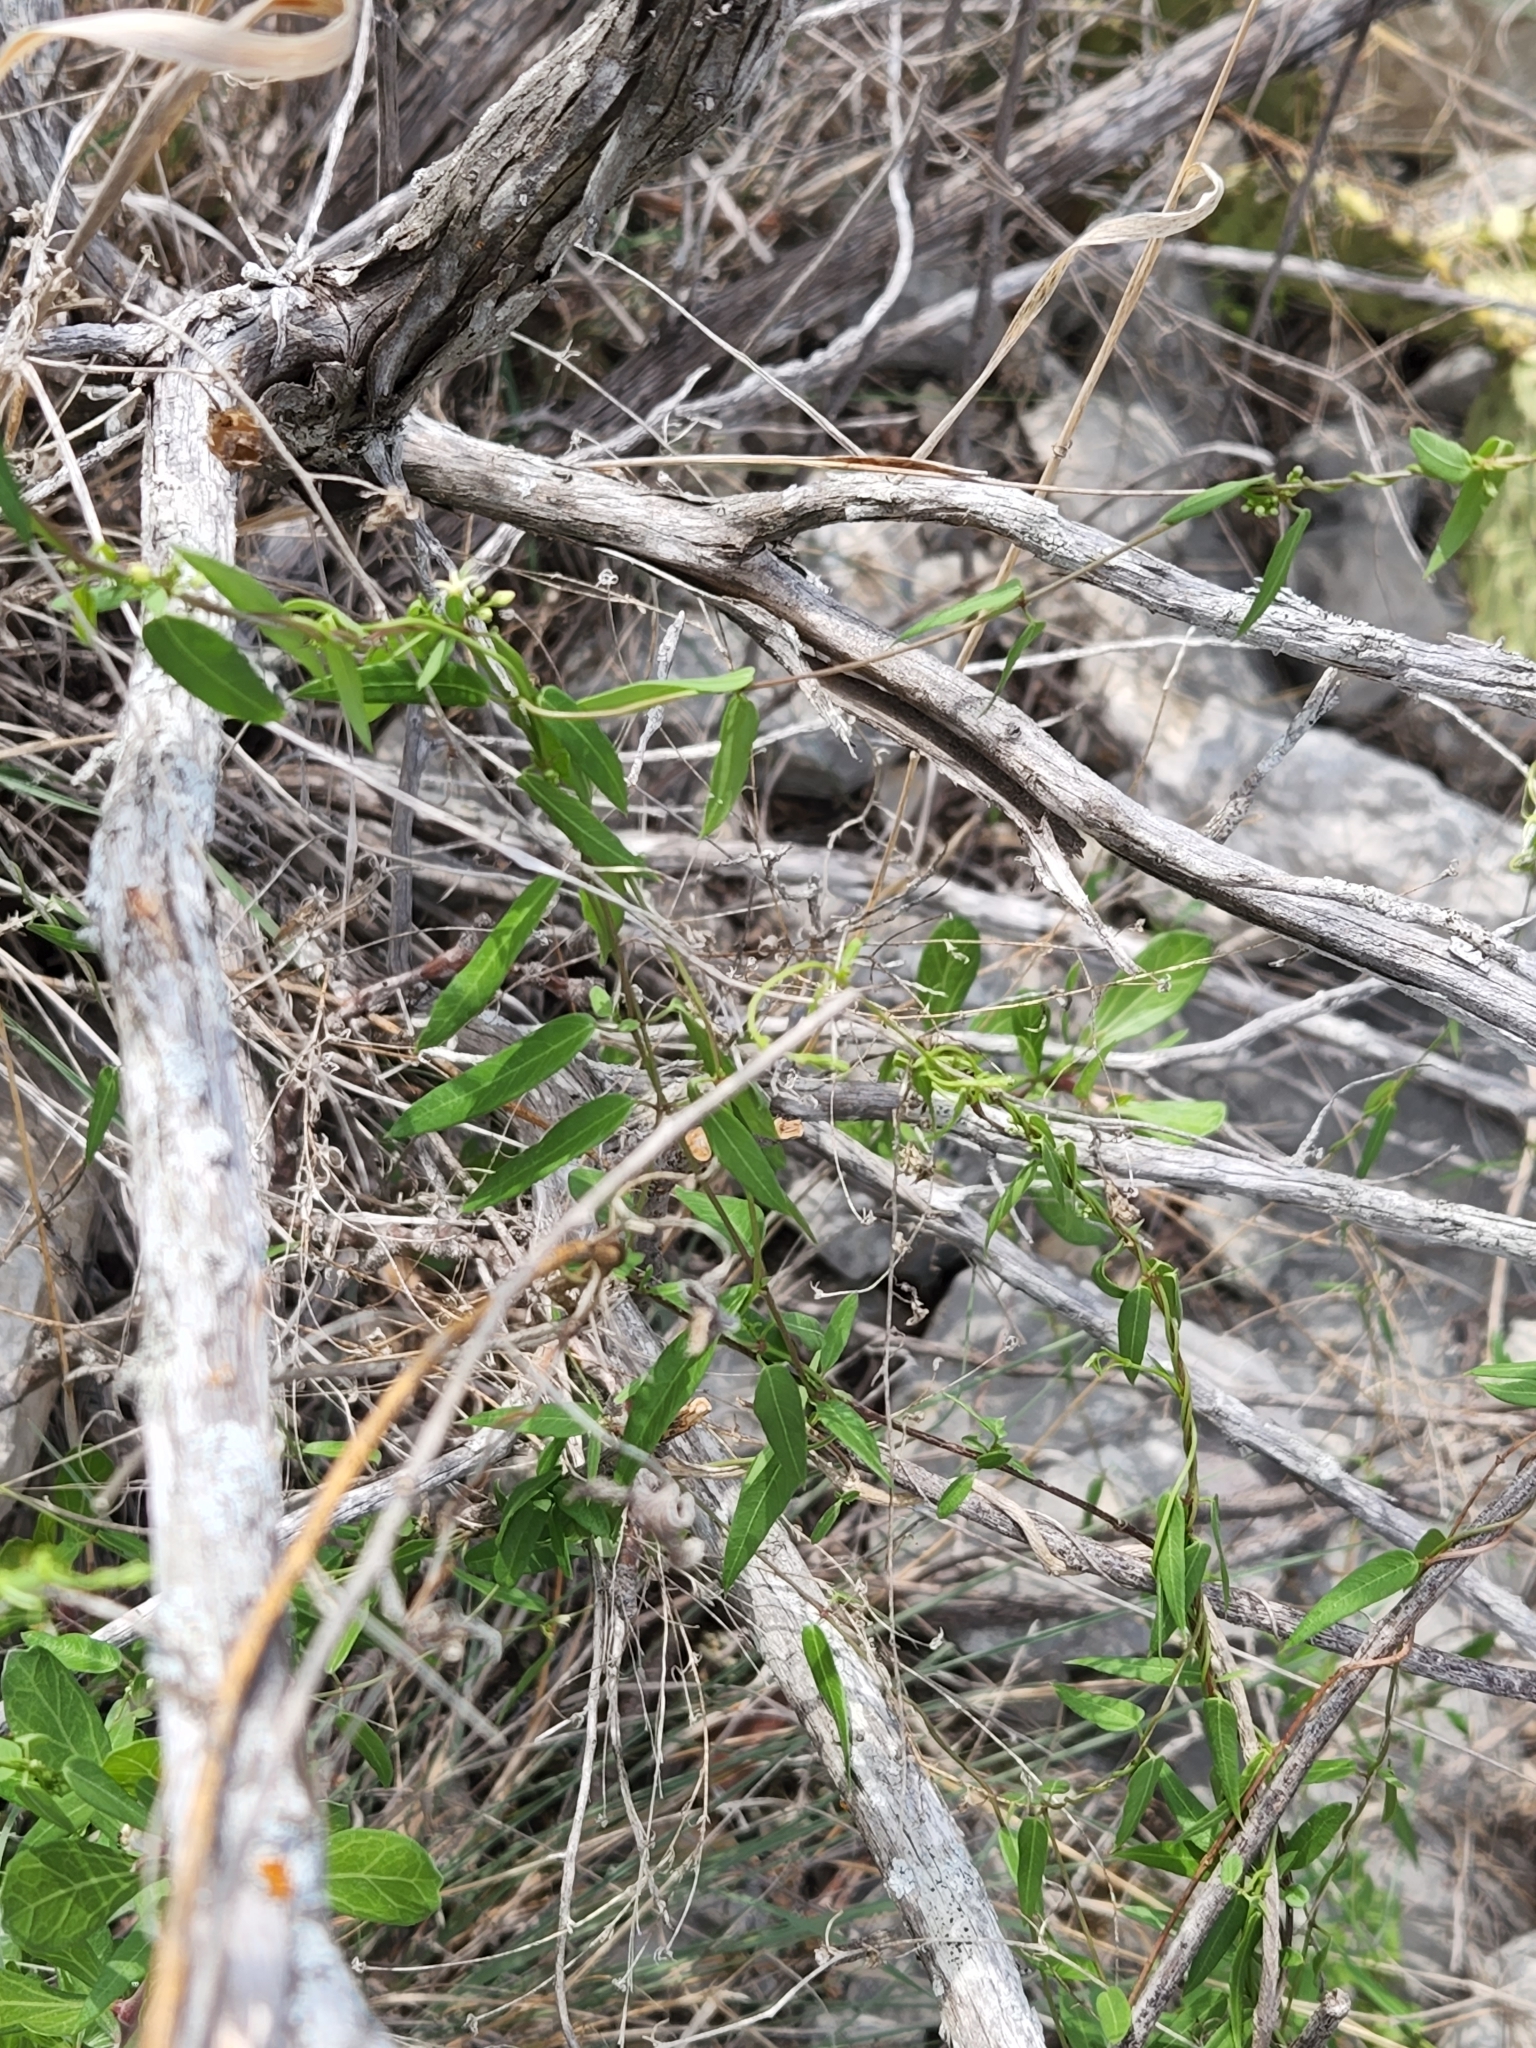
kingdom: Plantae
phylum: Tracheophyta
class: Magnoliopsida
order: Gentianales
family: Apocynaceae
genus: Metastelma
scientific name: Metastelma palmeri
